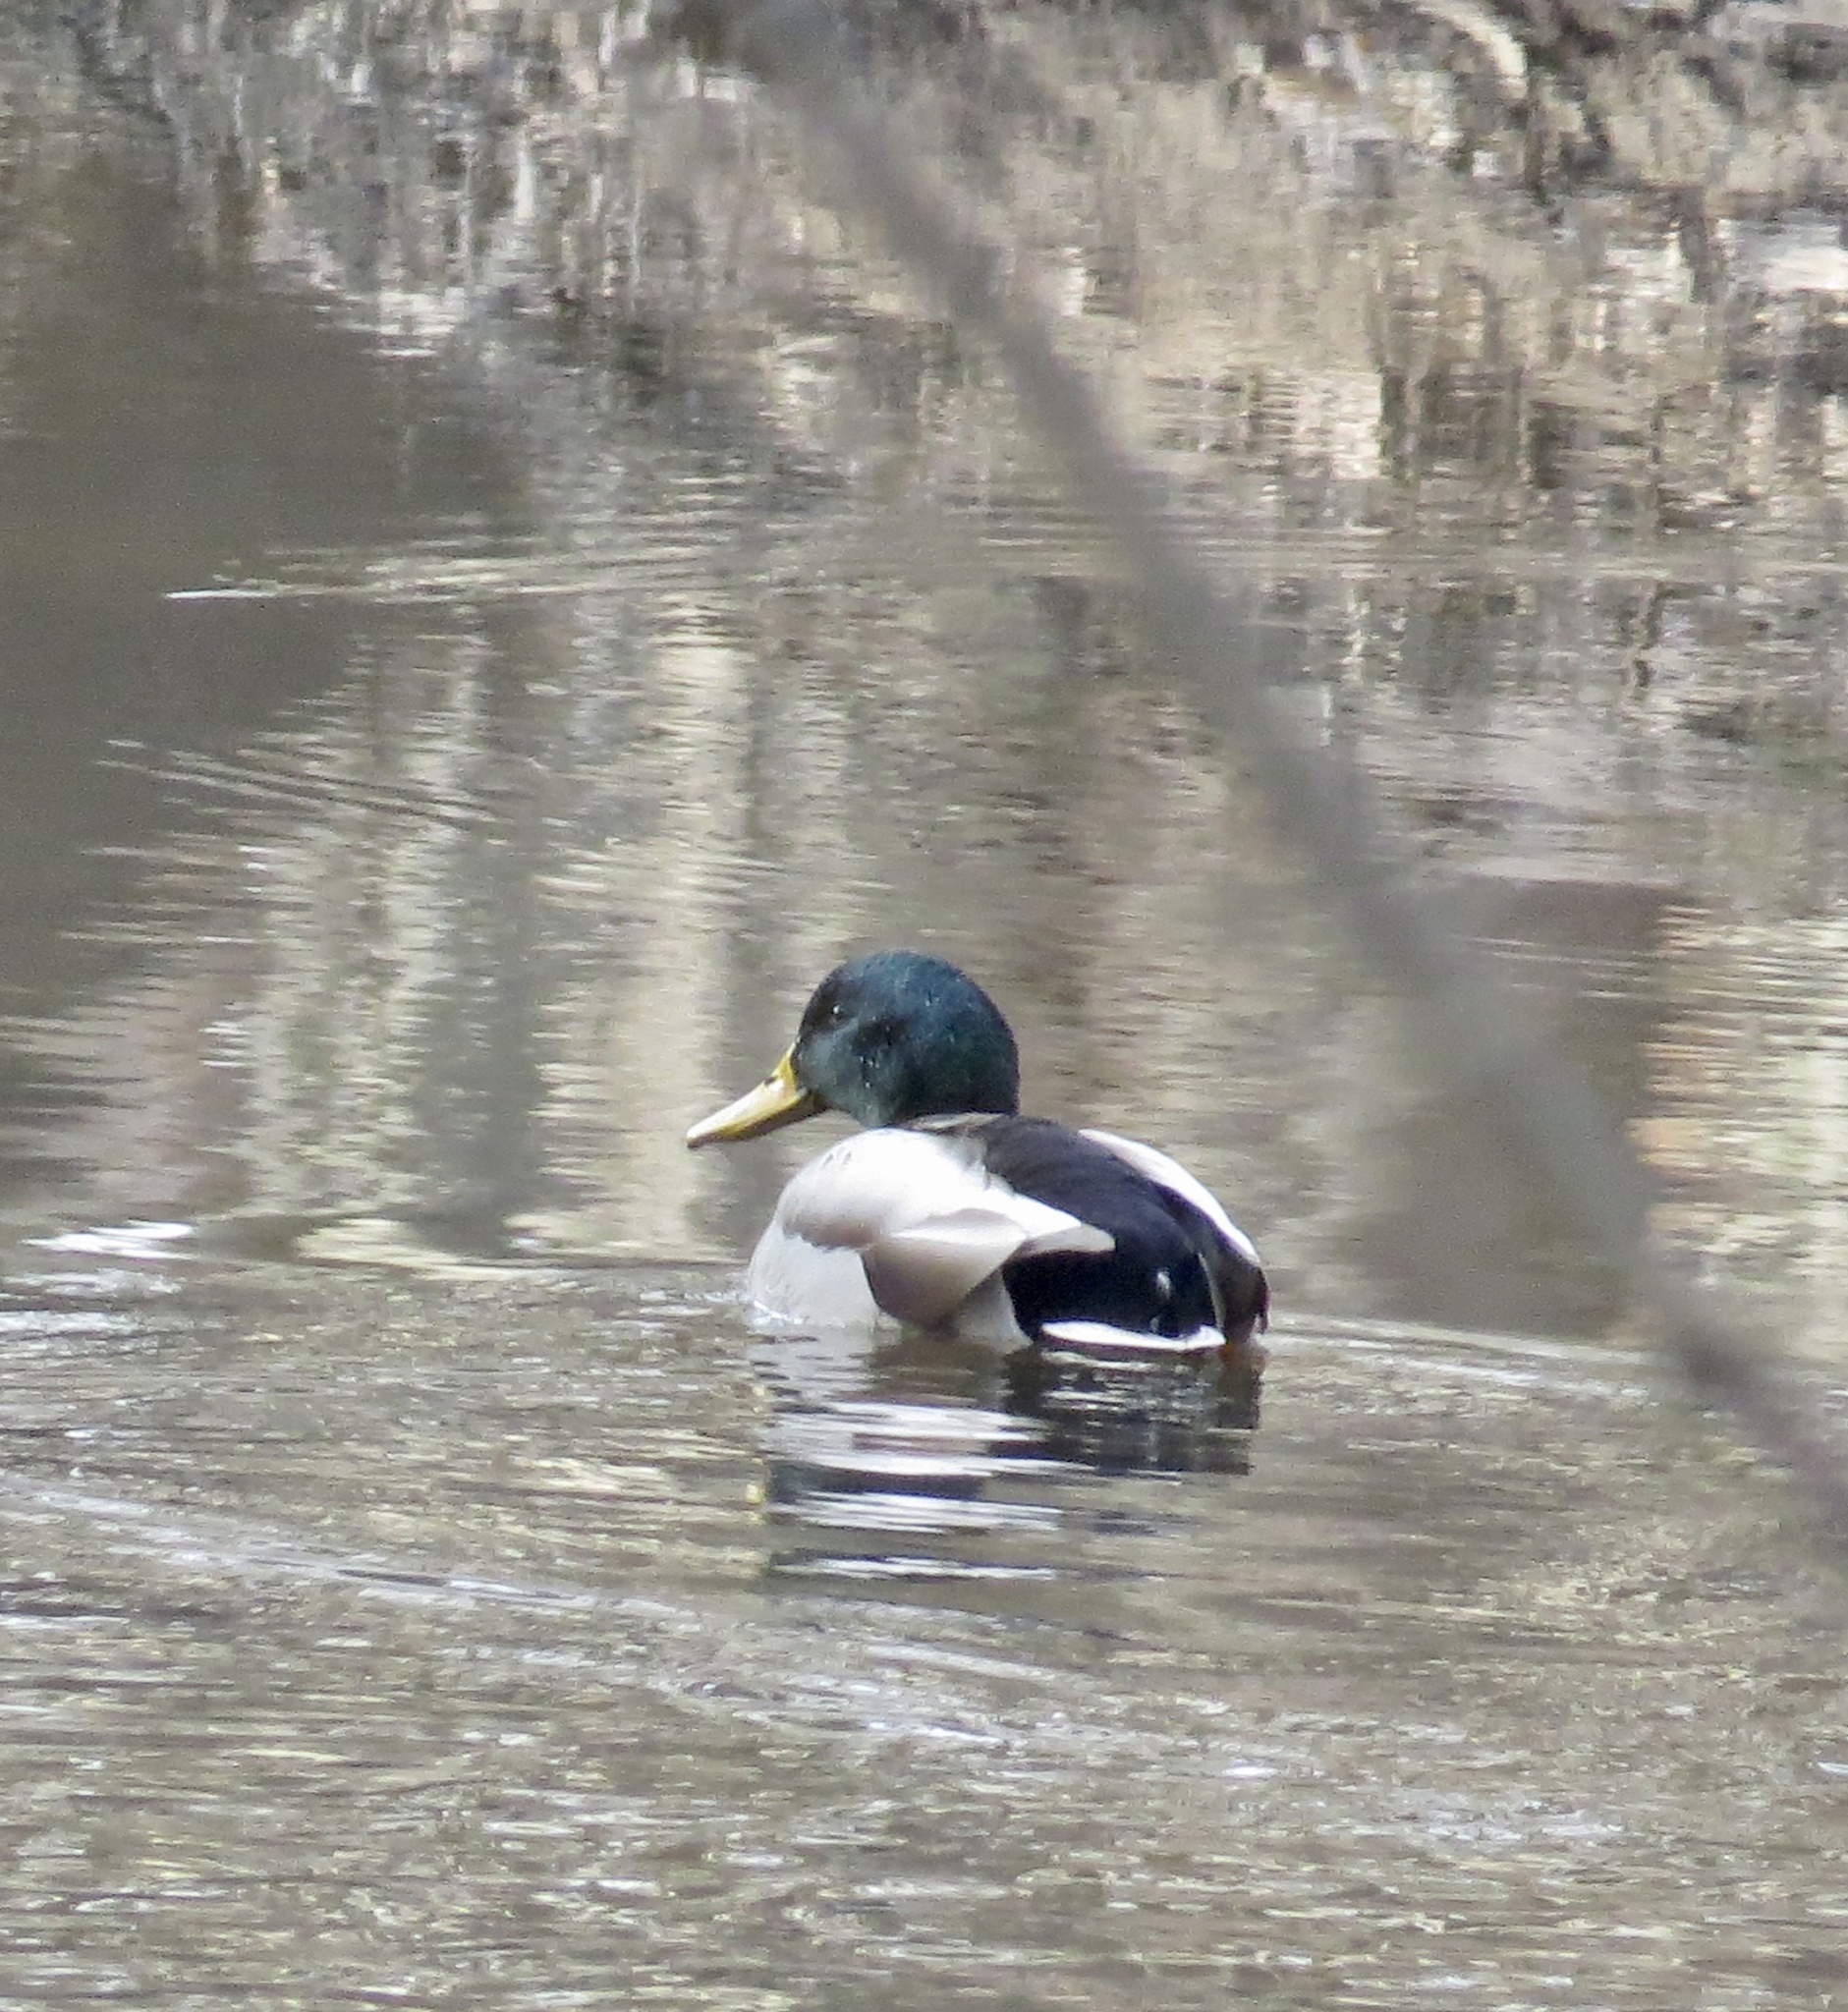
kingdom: Animalia
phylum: Chordata
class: Aves
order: Anseriformes
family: Anatidae
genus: Anas
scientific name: Anas platyrhynchos
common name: Mallard
